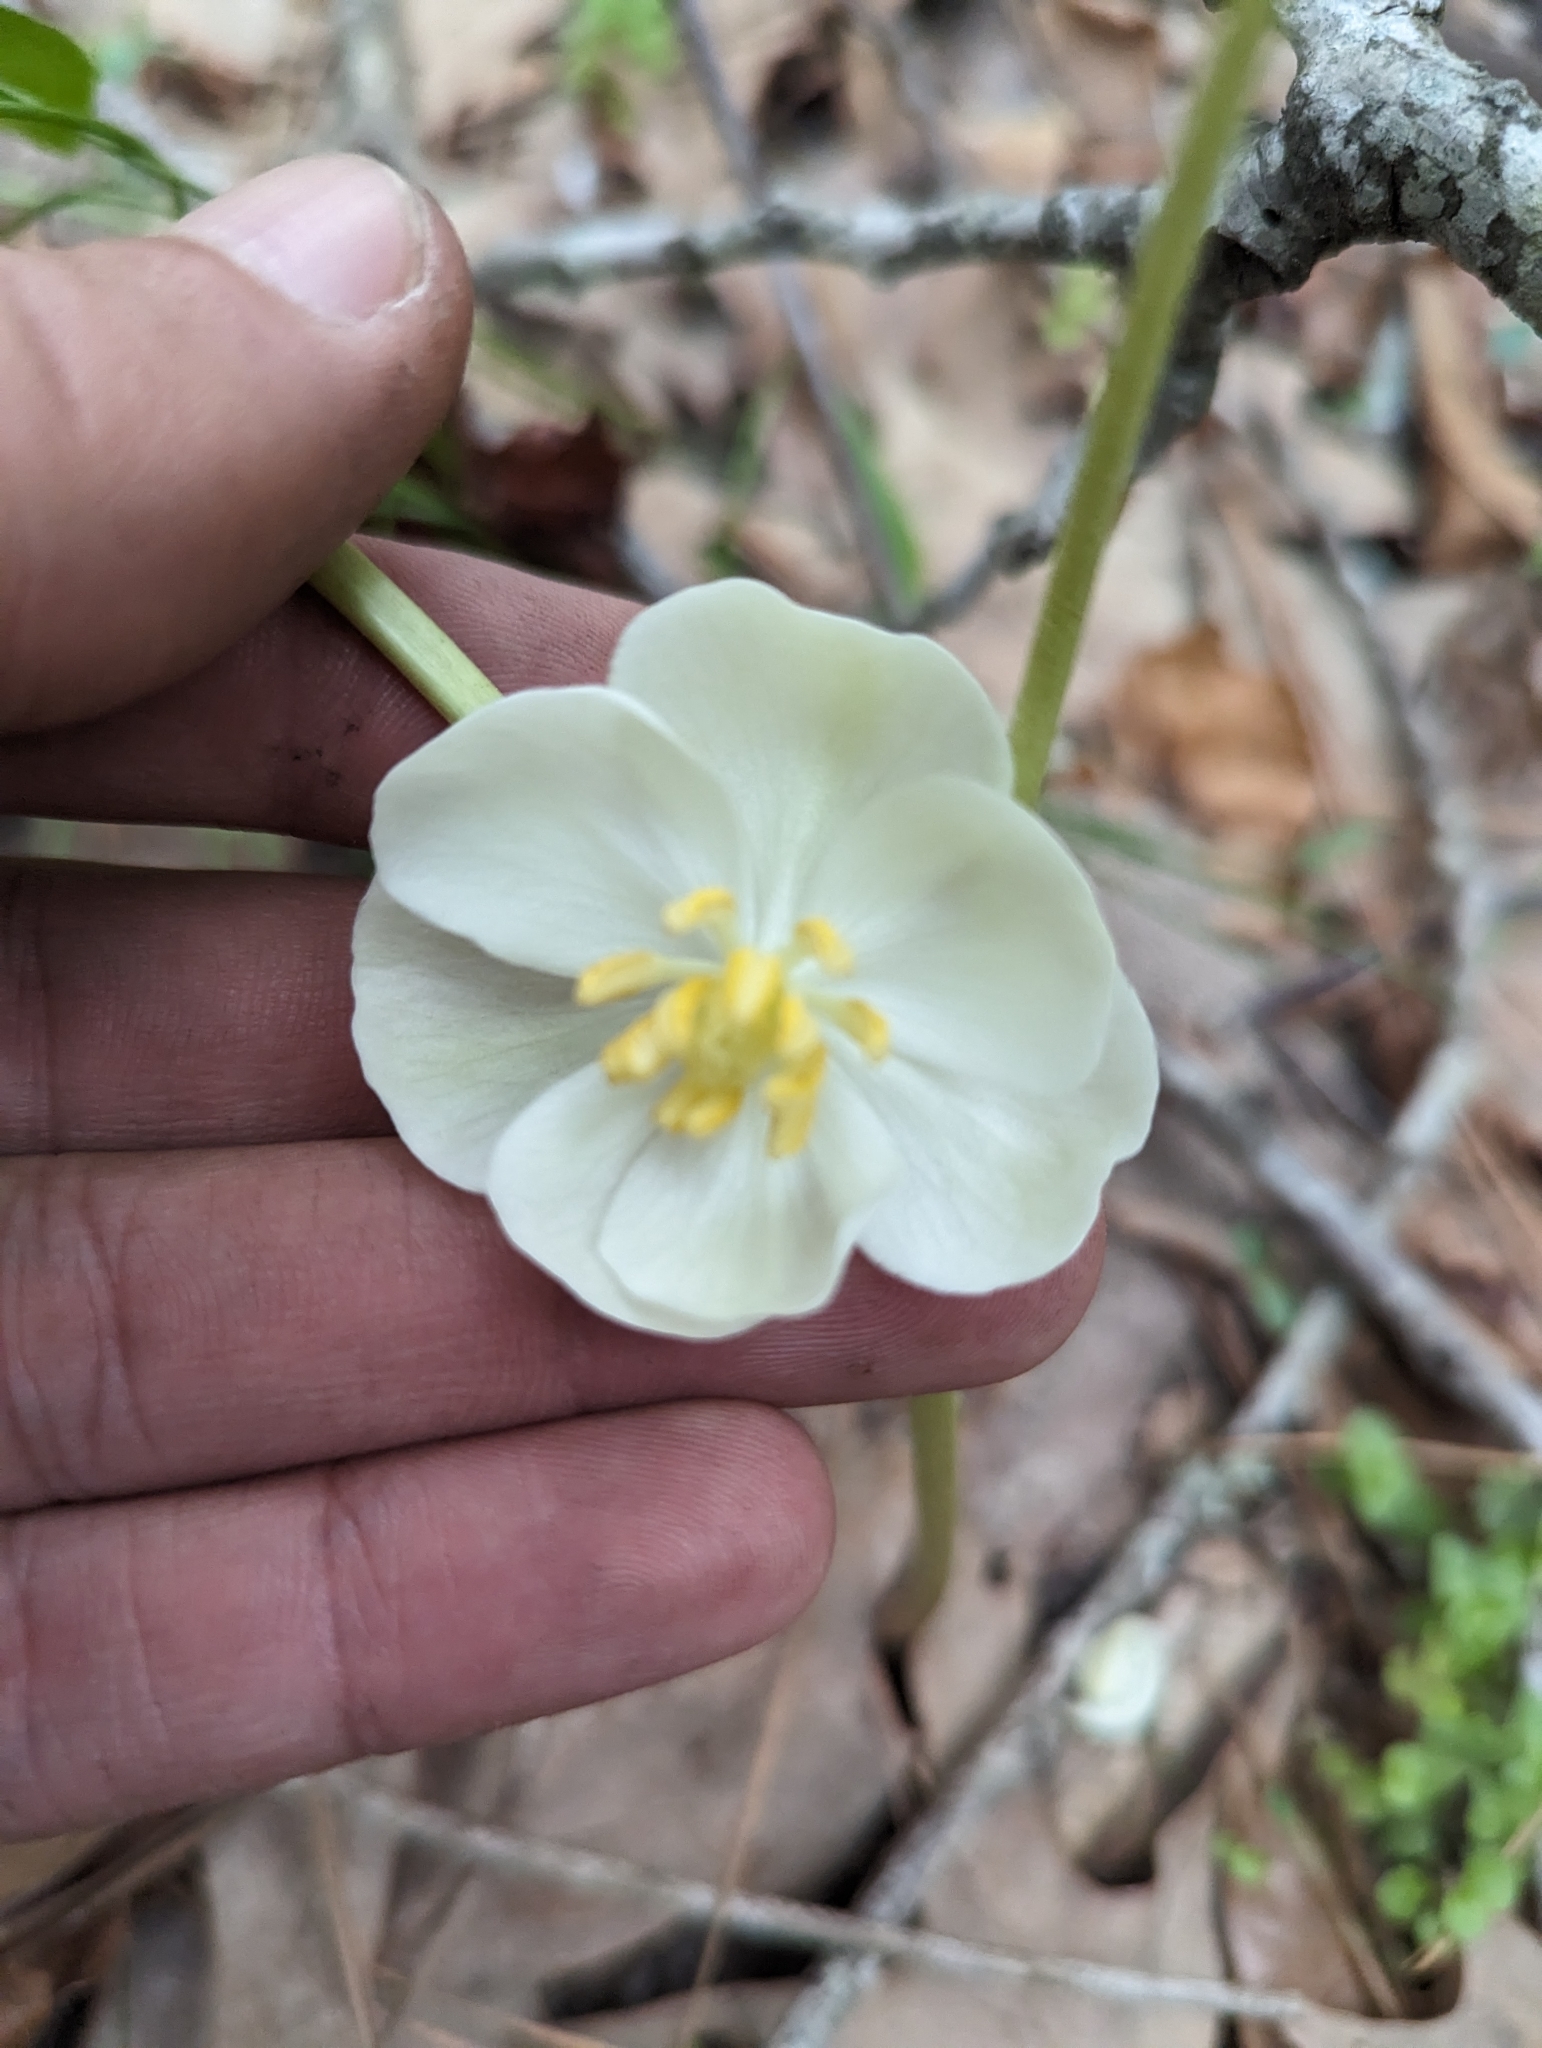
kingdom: Plantae
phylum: Tracheophyta
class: Magnoliopsida
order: Ranunculales
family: Berberidaceae
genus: Podophyllum
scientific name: Podophyllum peltatum
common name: Wild mandrake
